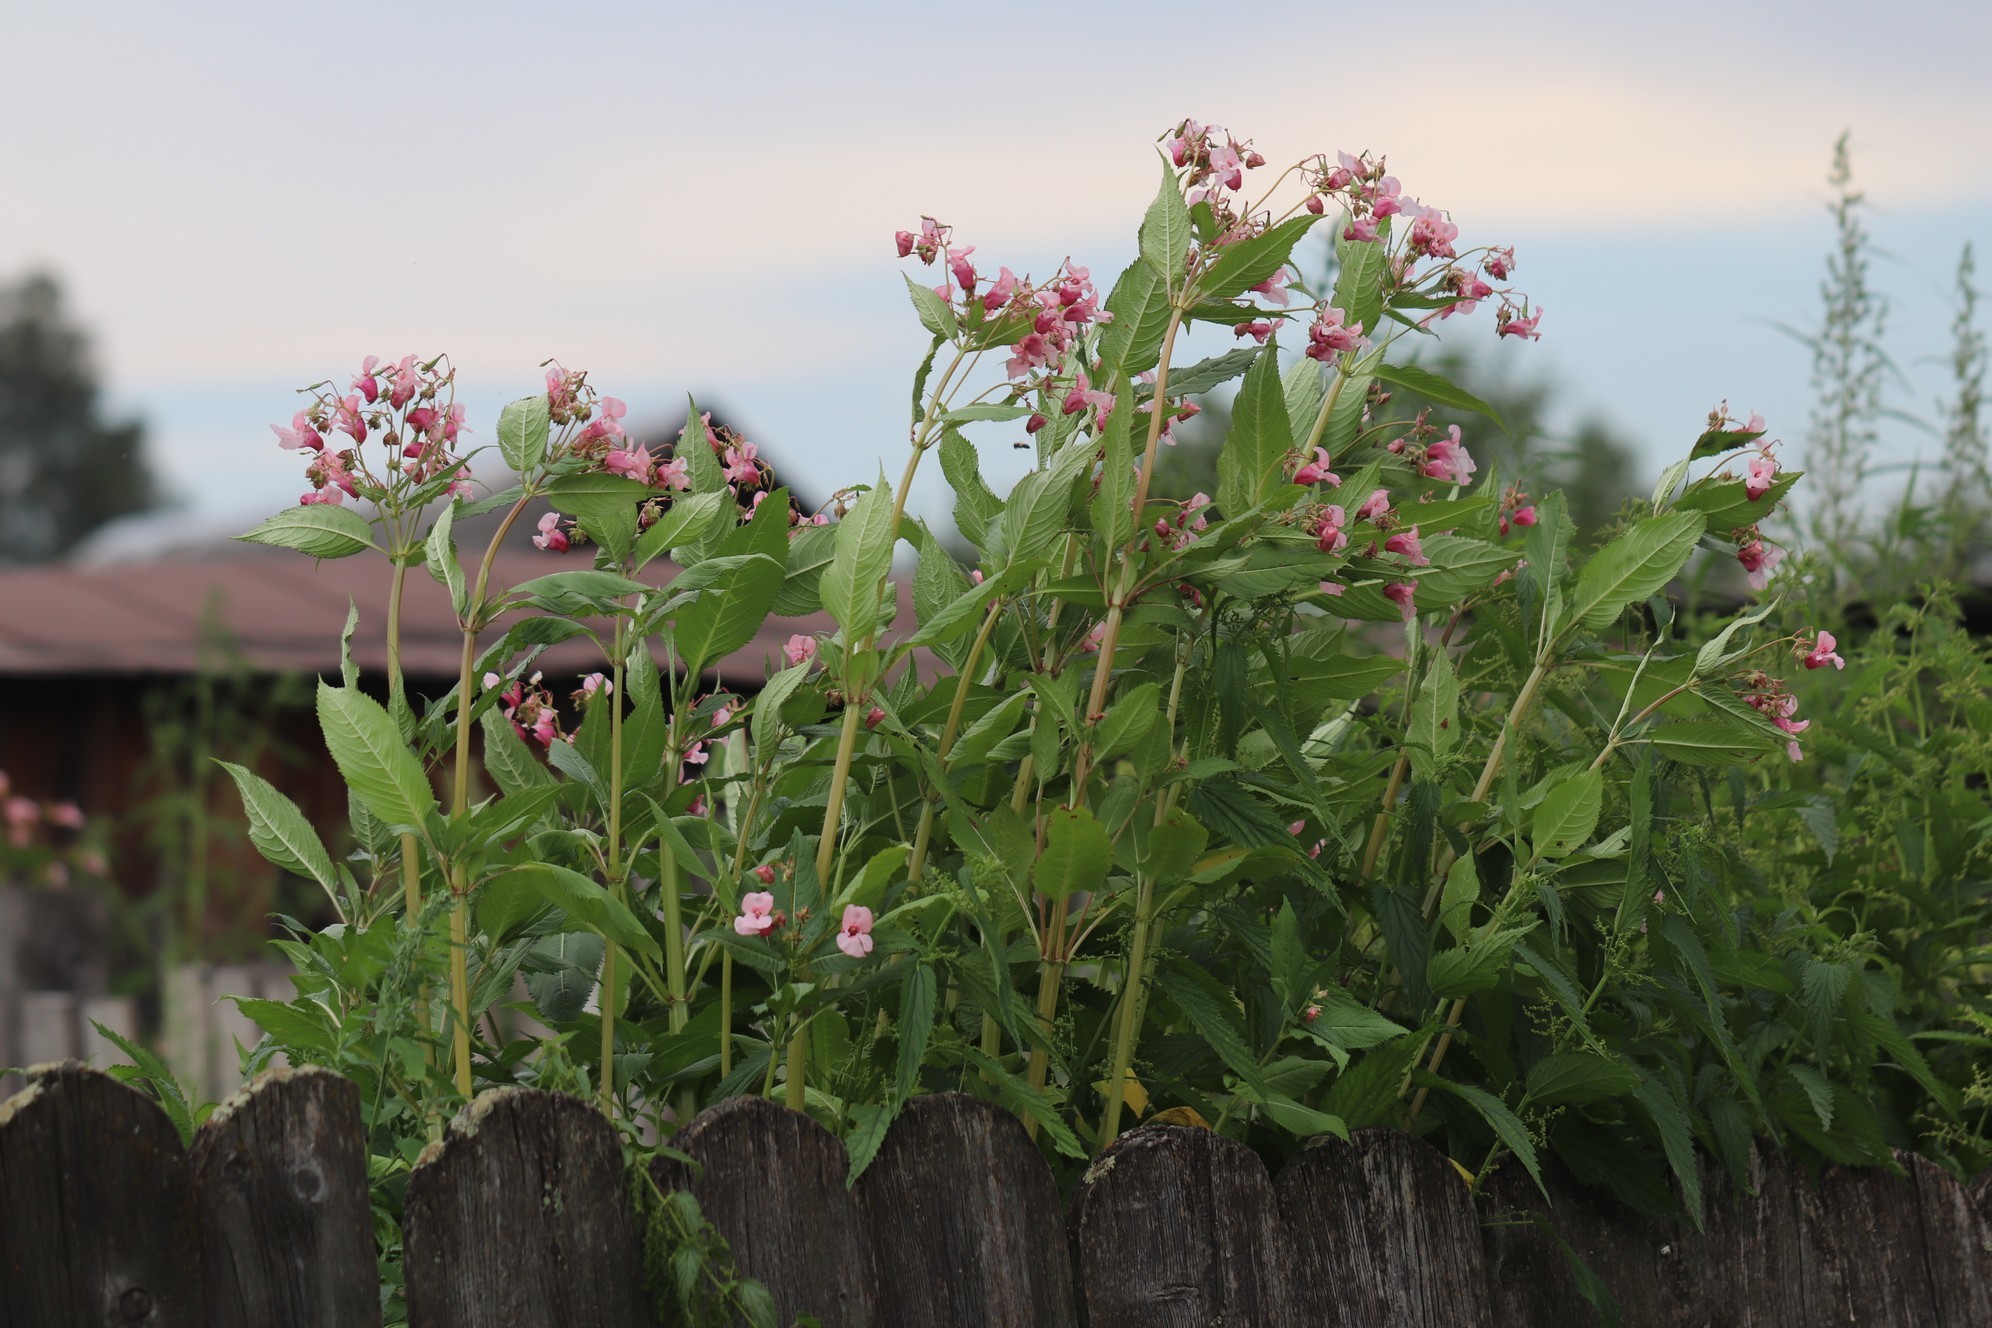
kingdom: Plantae
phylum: Tracheophyta
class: Magnoliopsida
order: Ericales
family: Balsaminaceae
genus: Impatiens
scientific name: Impatiens glandulifera
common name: Himalayan balsam
